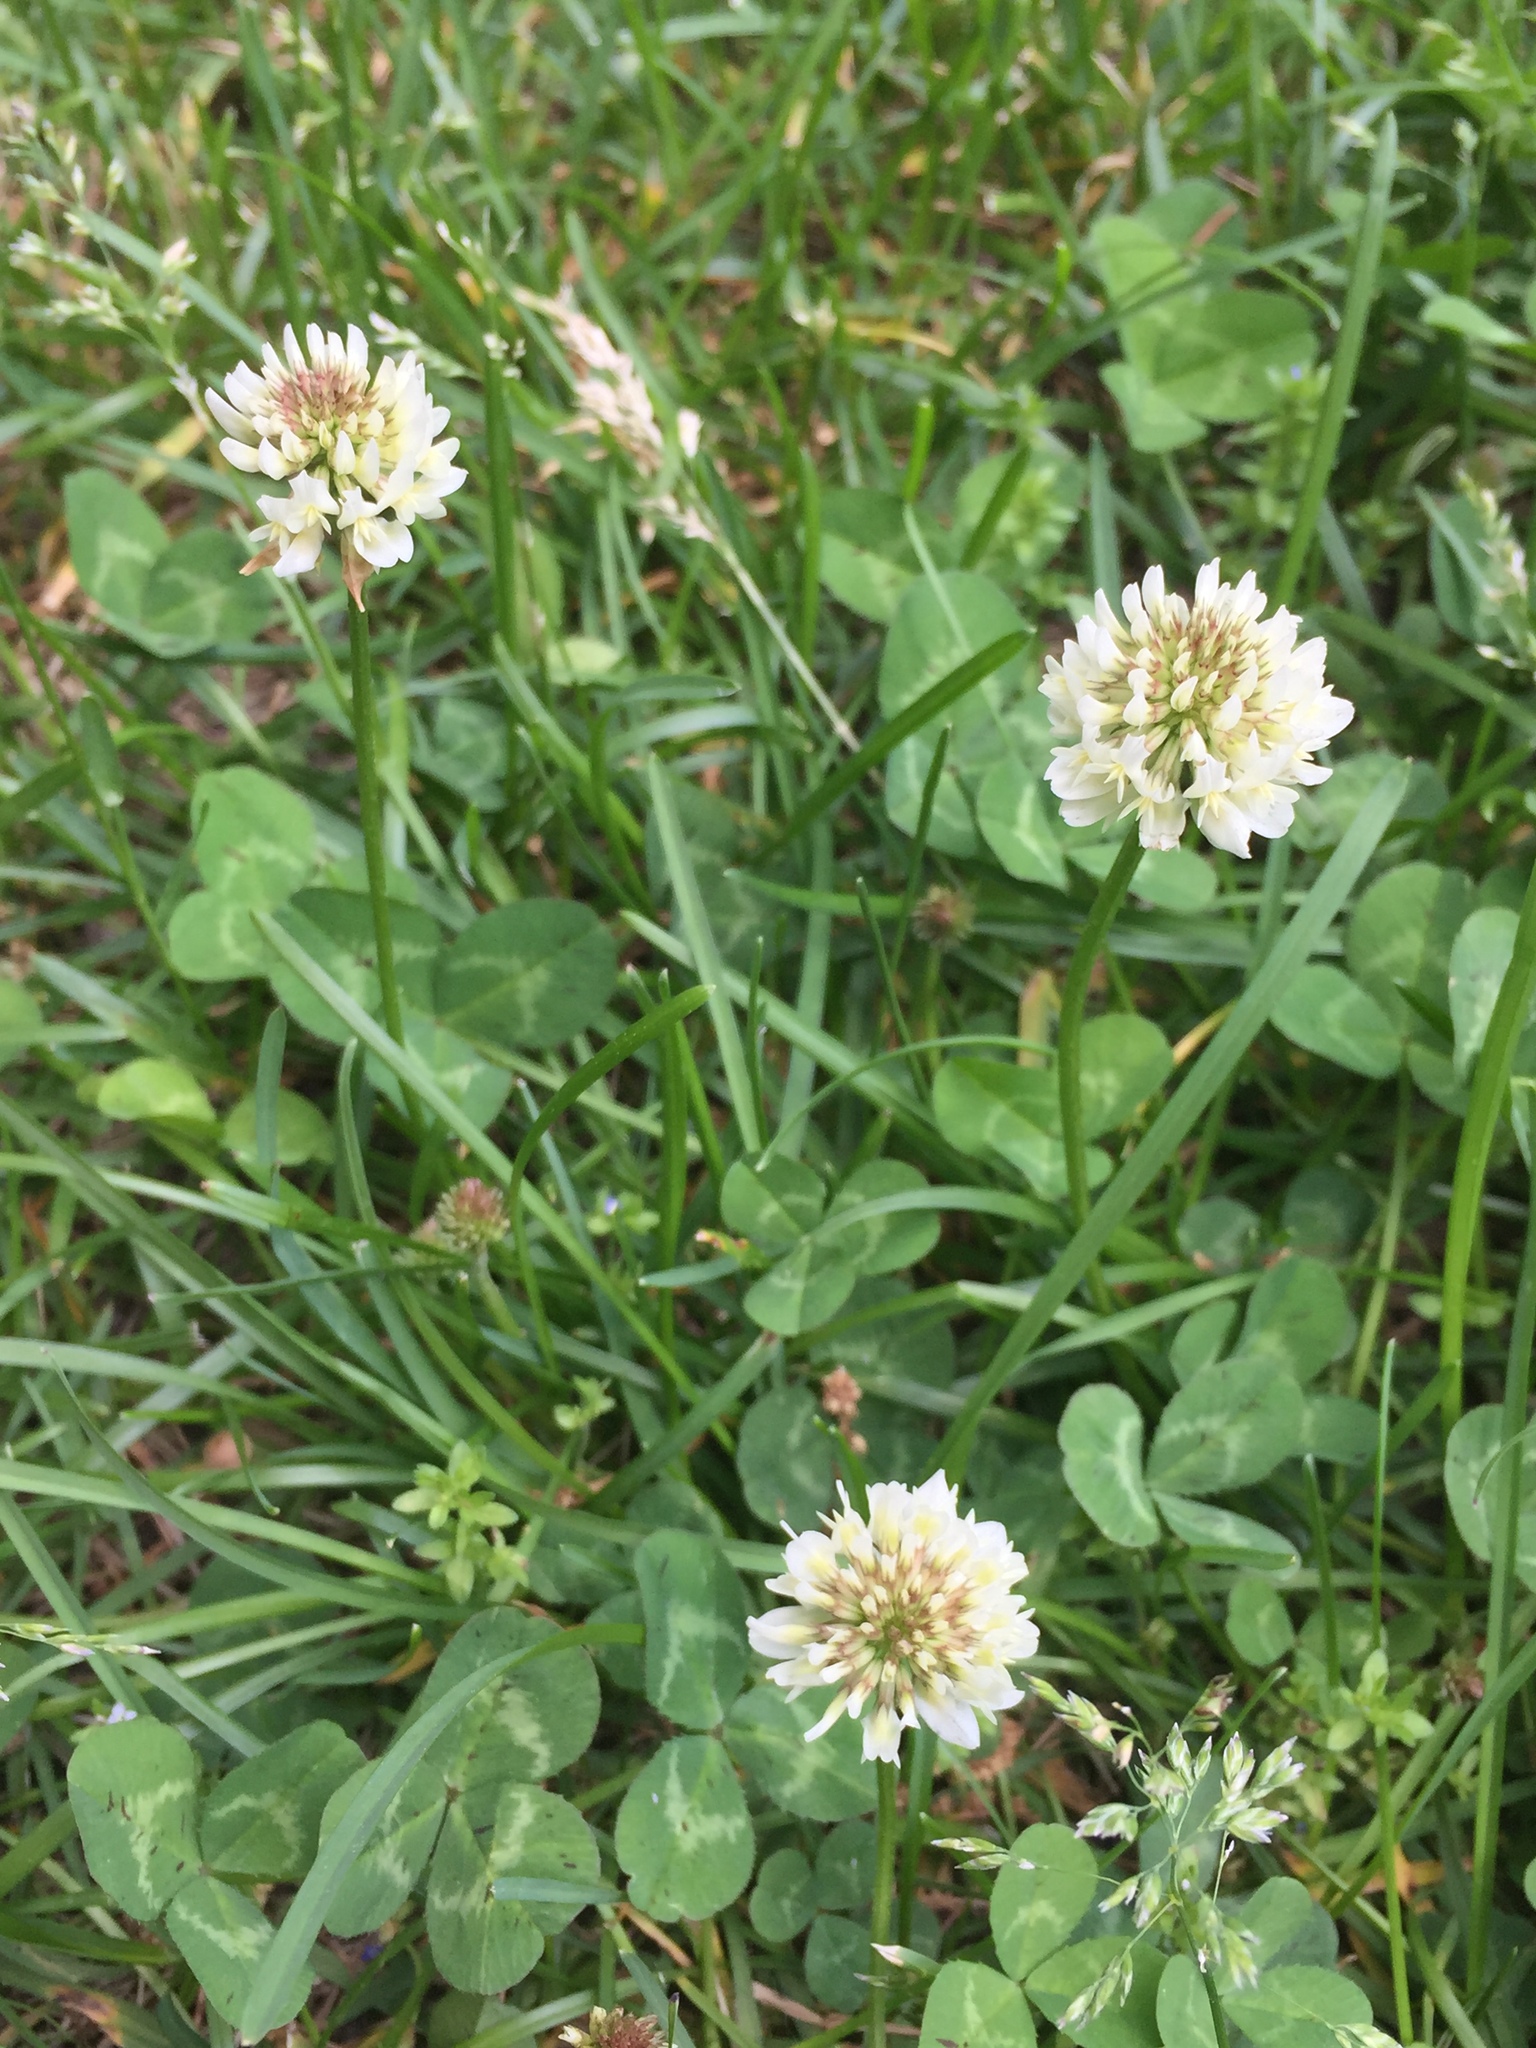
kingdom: Plantae
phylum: Tracheophyta
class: Magnoliopsida
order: Fabales
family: Fabaceae
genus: Trifolium
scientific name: Trifolium repens
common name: White clover
